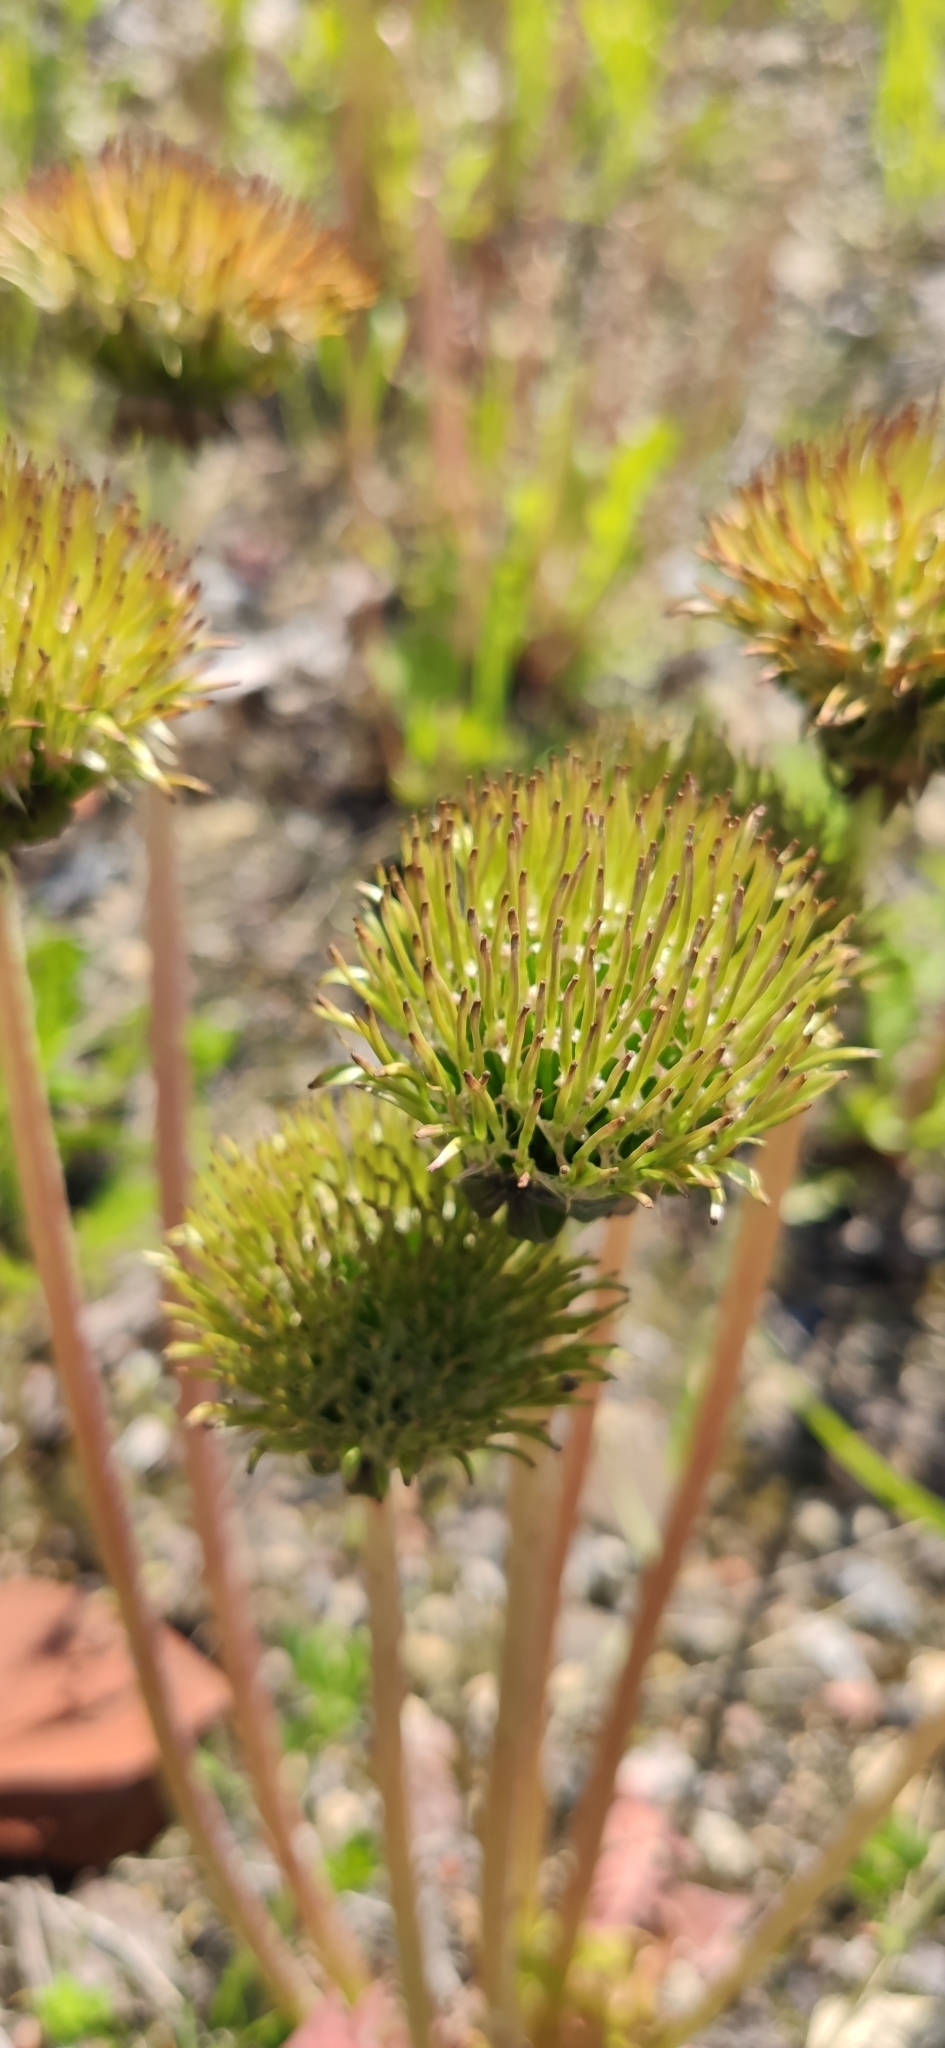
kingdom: Plantae
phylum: Tracheophyta
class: Magnoliopsida
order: Asterales
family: Asteraceae
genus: Taraxacum
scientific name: Taraxacum officinale
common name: Common dandelion
